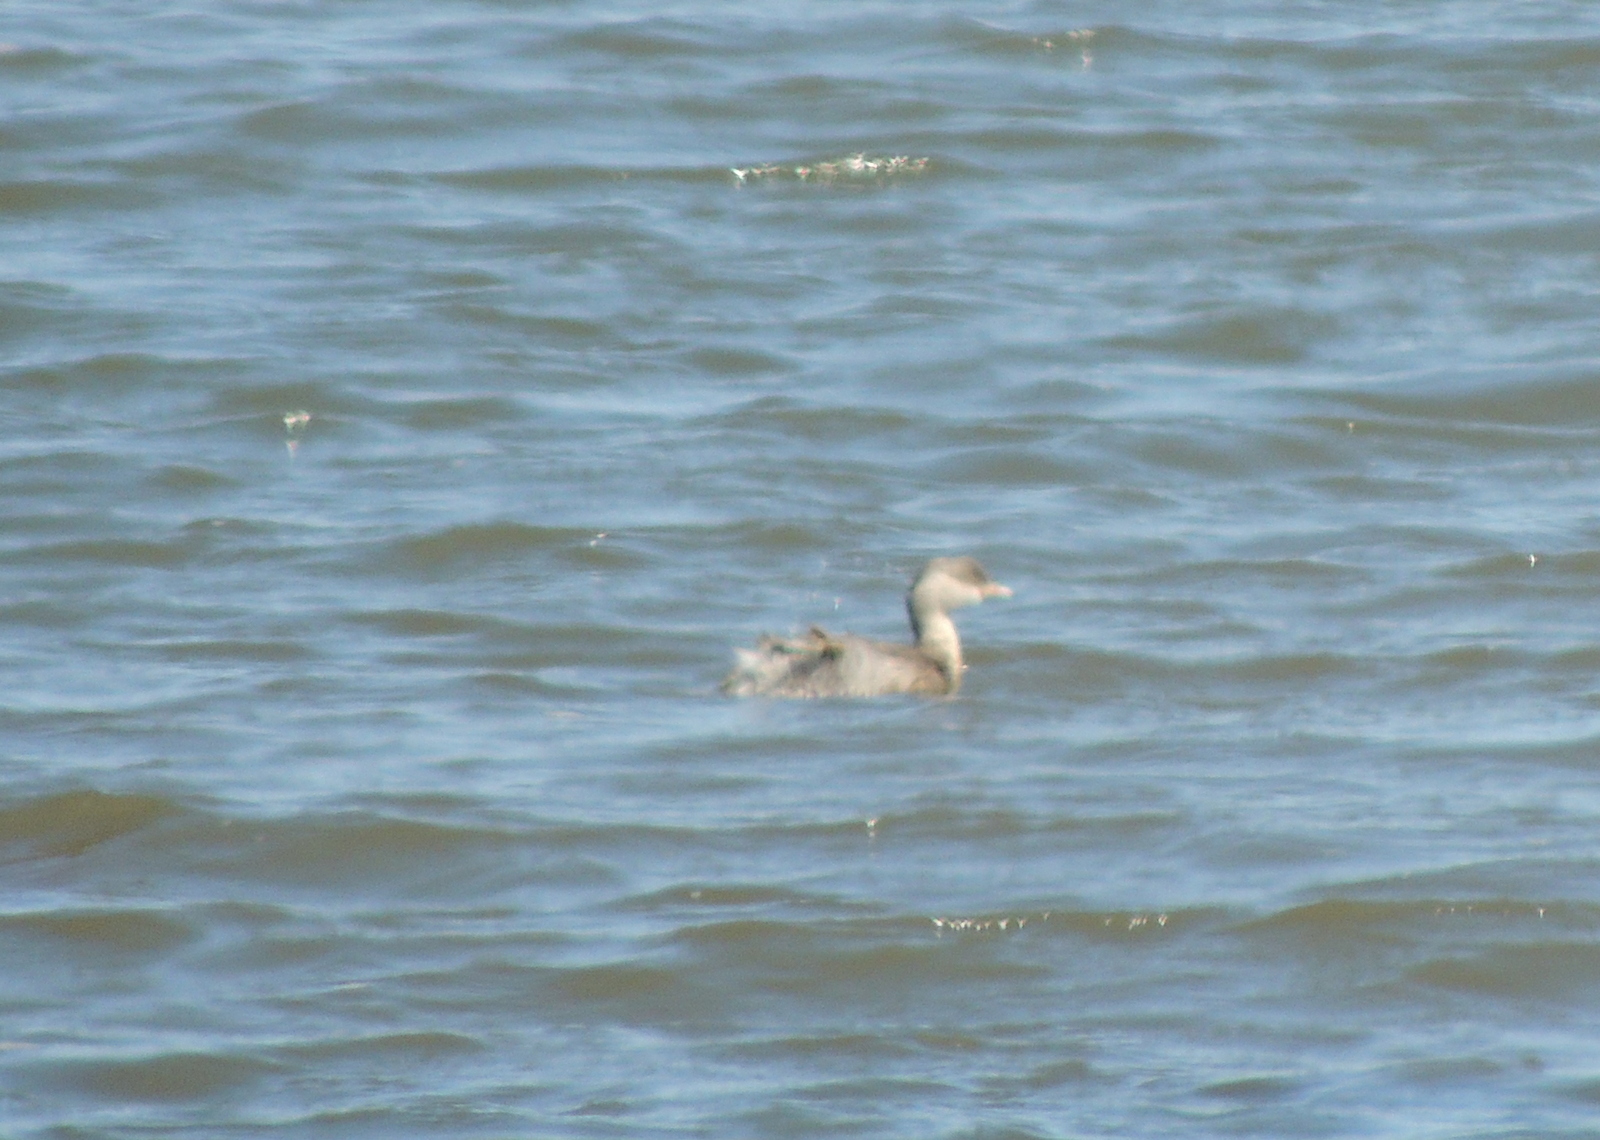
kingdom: Animalia
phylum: Chordata
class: Aves
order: Podicipediformes
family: Podicipedidae
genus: Poliocephalus
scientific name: Poliocephalus poliocephalus
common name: Hoary-headed grebe
